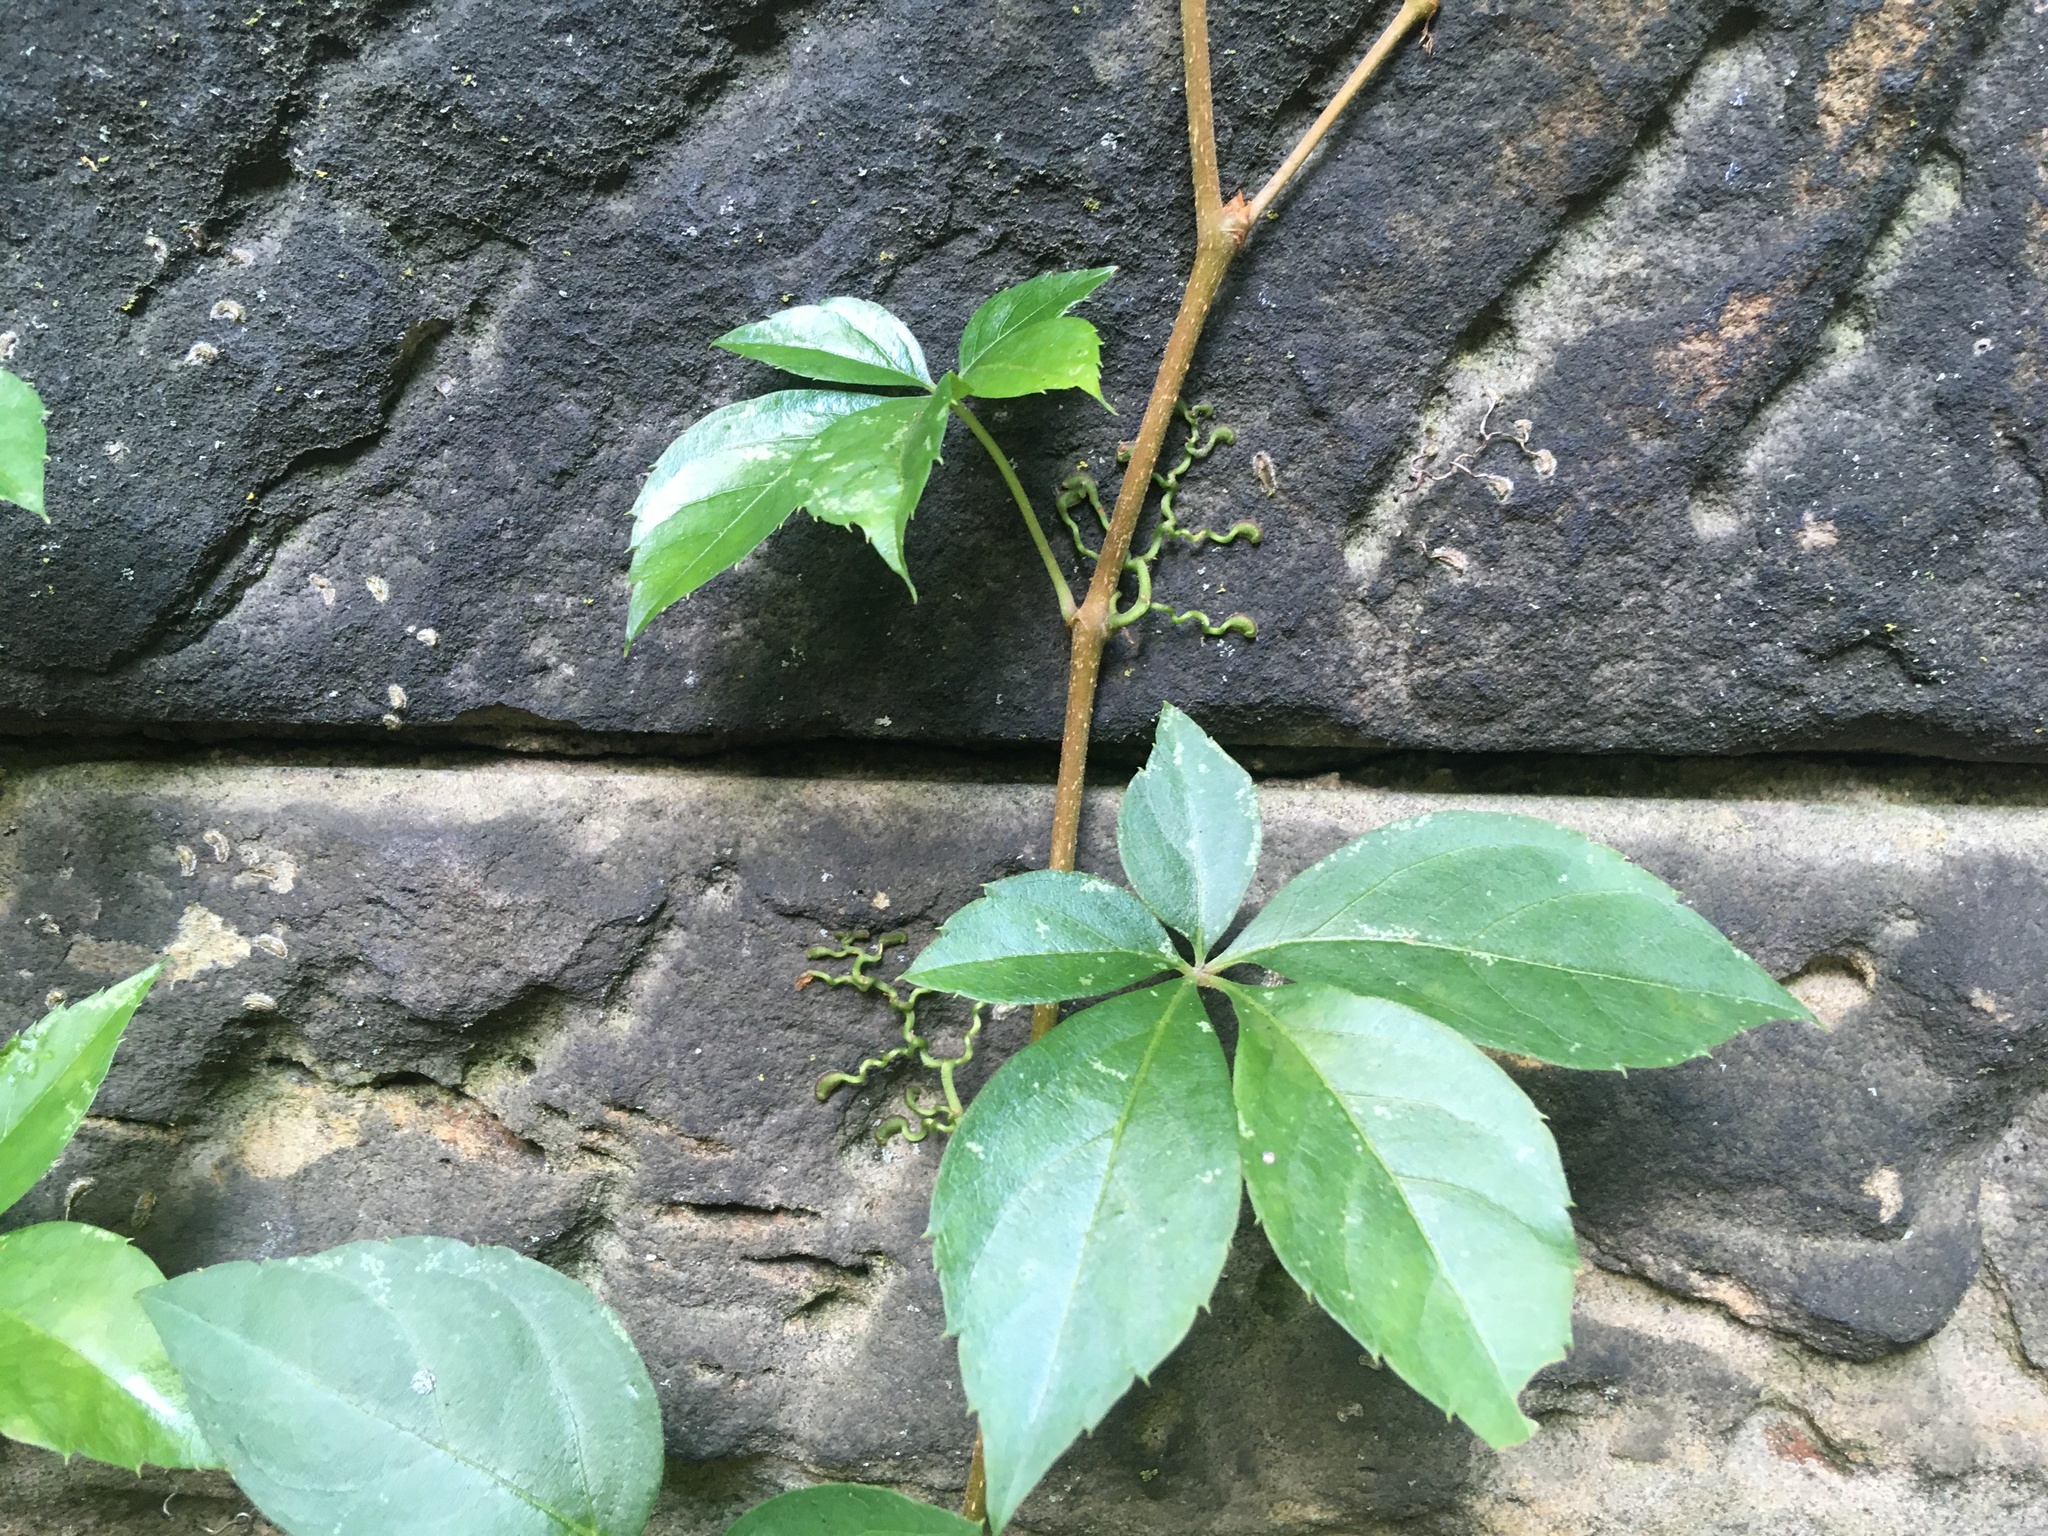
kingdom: Plantae
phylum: Tracheophyta
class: Magnoliopsida
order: Vitales
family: Vitaceae
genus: Parthenocissus
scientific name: Parthenocissus quinquefolia
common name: Virginia-creeper
